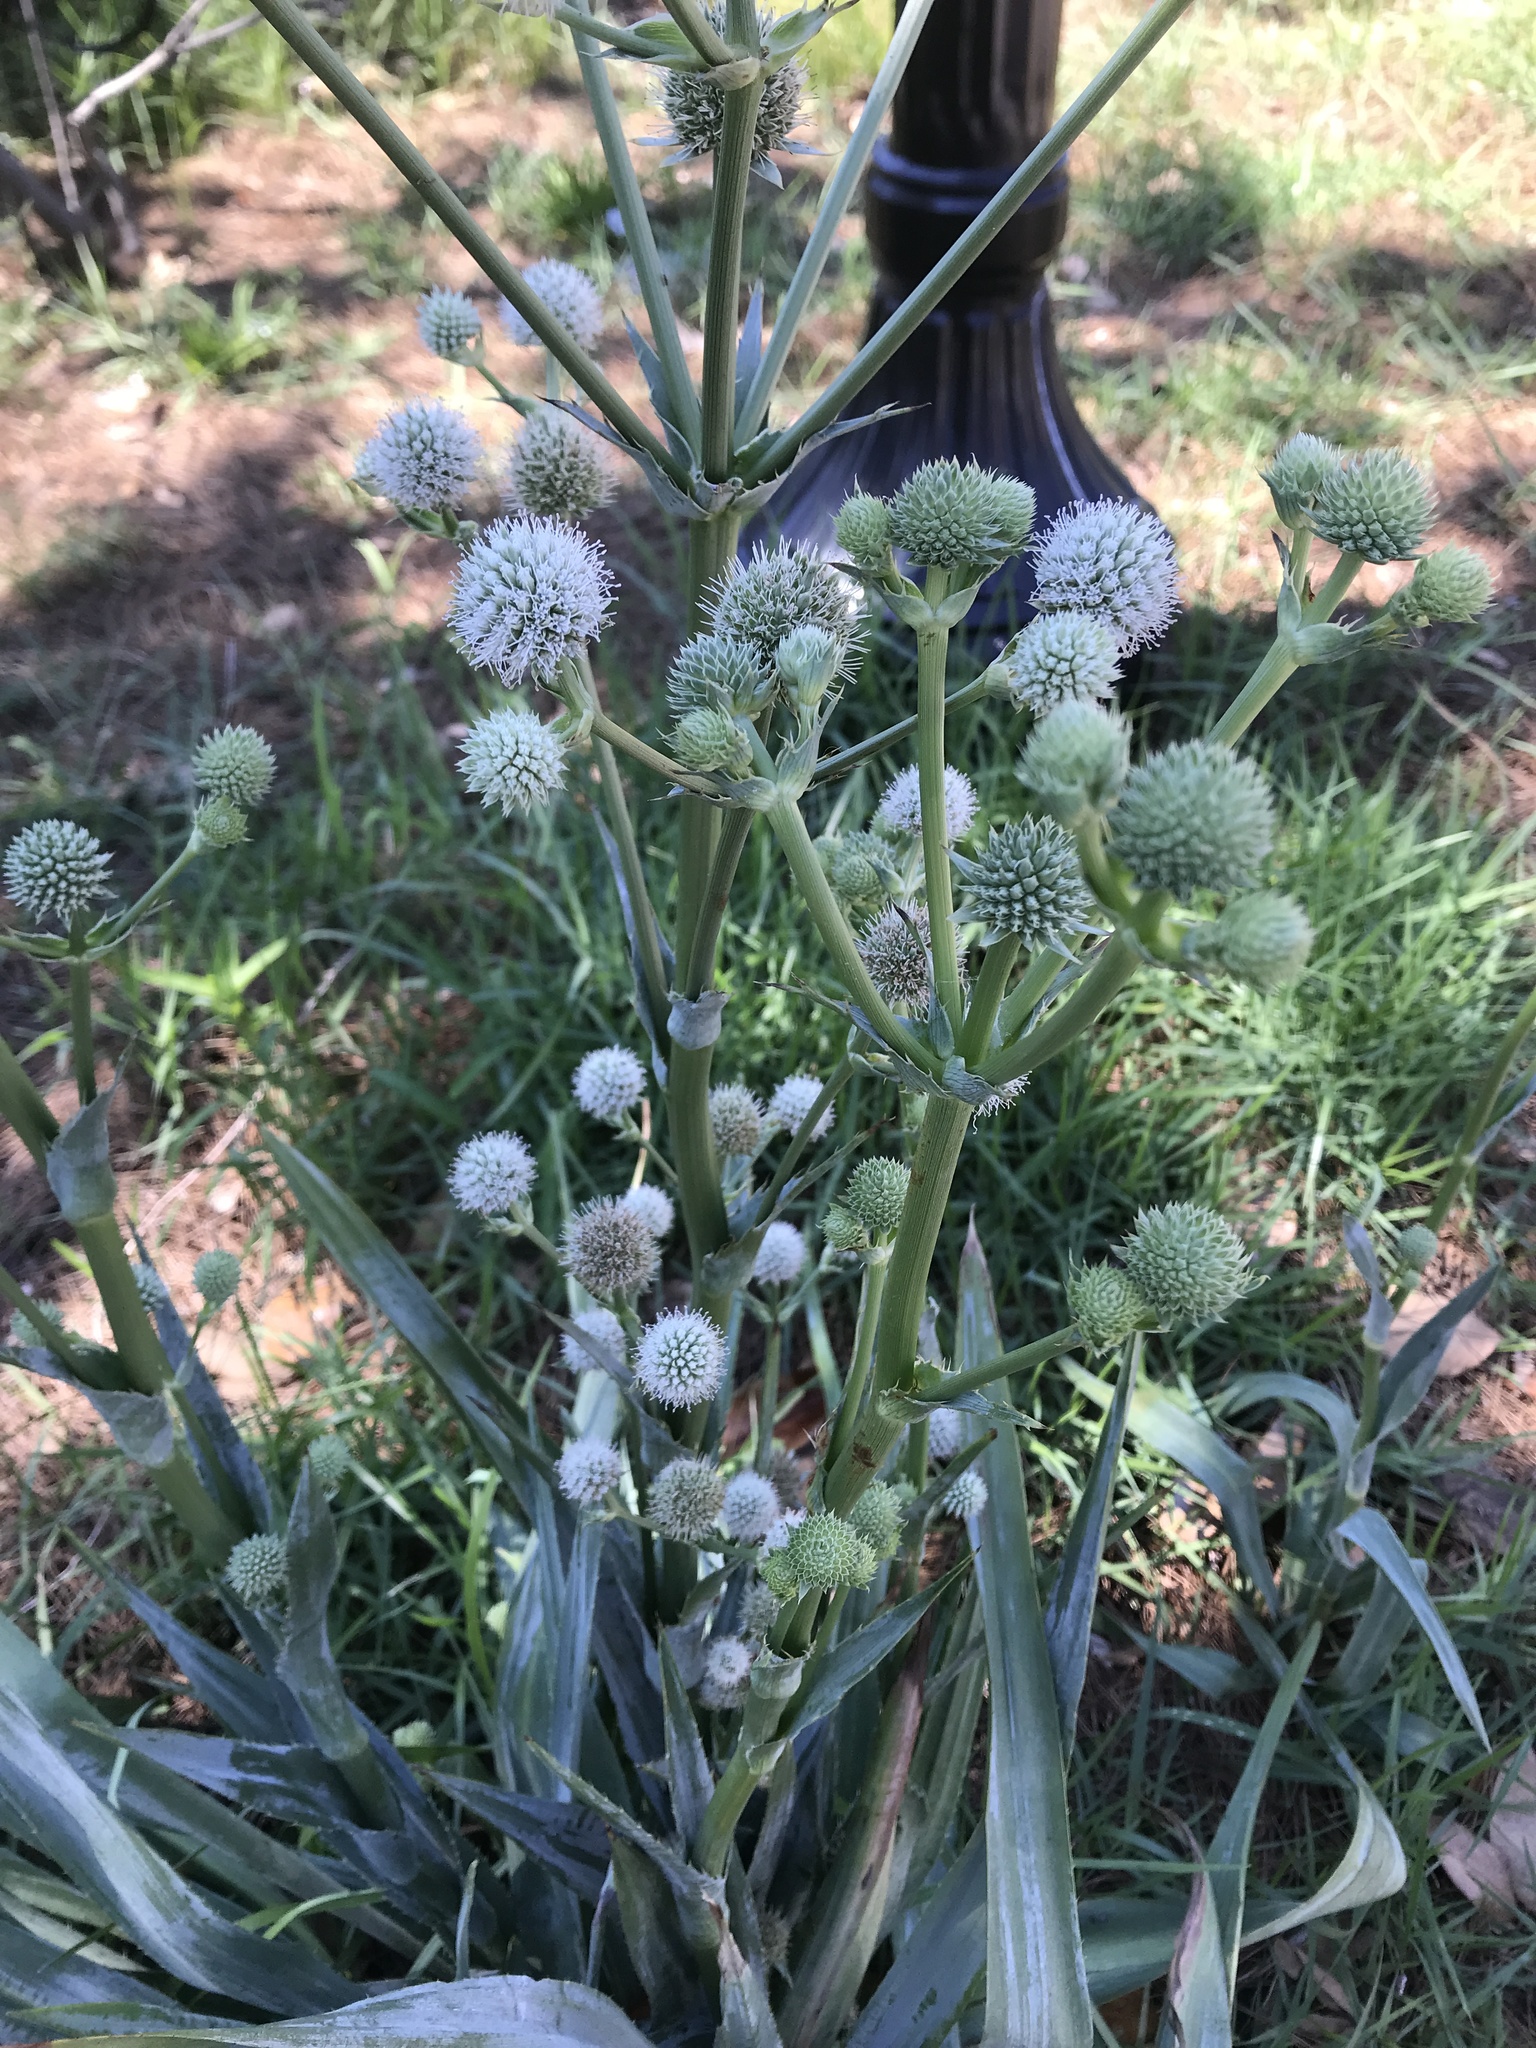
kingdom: Plantae
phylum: Tracheophyta
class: Magnoliopsida
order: Apiales
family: Apiaceae
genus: Eryngium
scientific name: Eryngium yuccifolium
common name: Button eryngo
